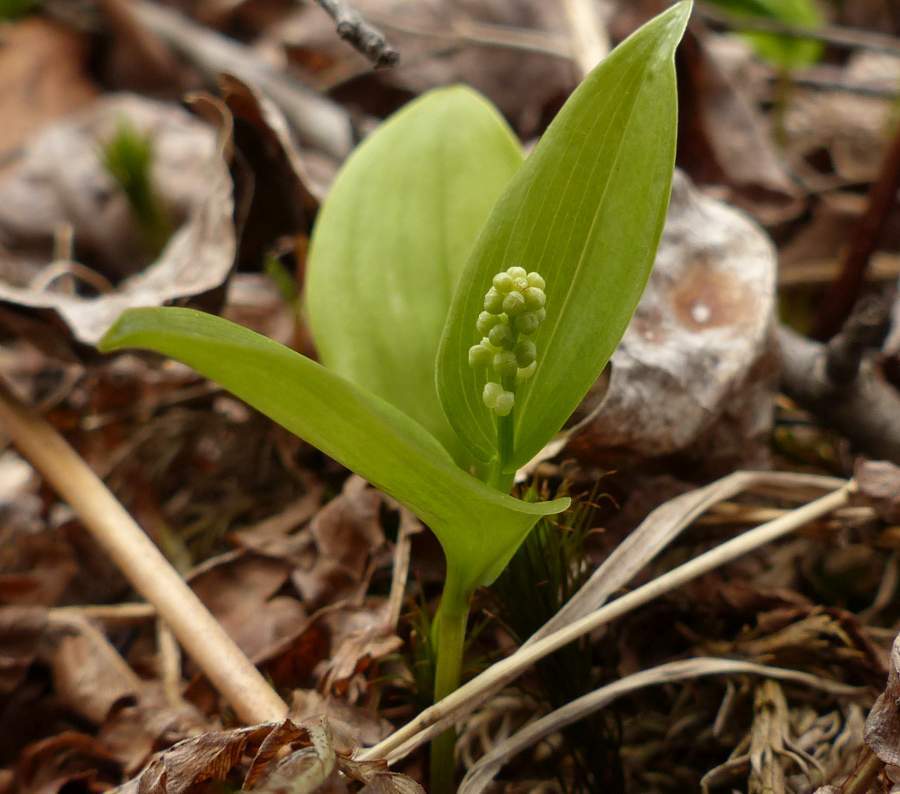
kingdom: Plantae
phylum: Tracheophyta
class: Liliopsida
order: Asparagales
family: Asparagaceae
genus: Maianthemum
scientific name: Maianthemum canadense
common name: False lily-of-the-valley
